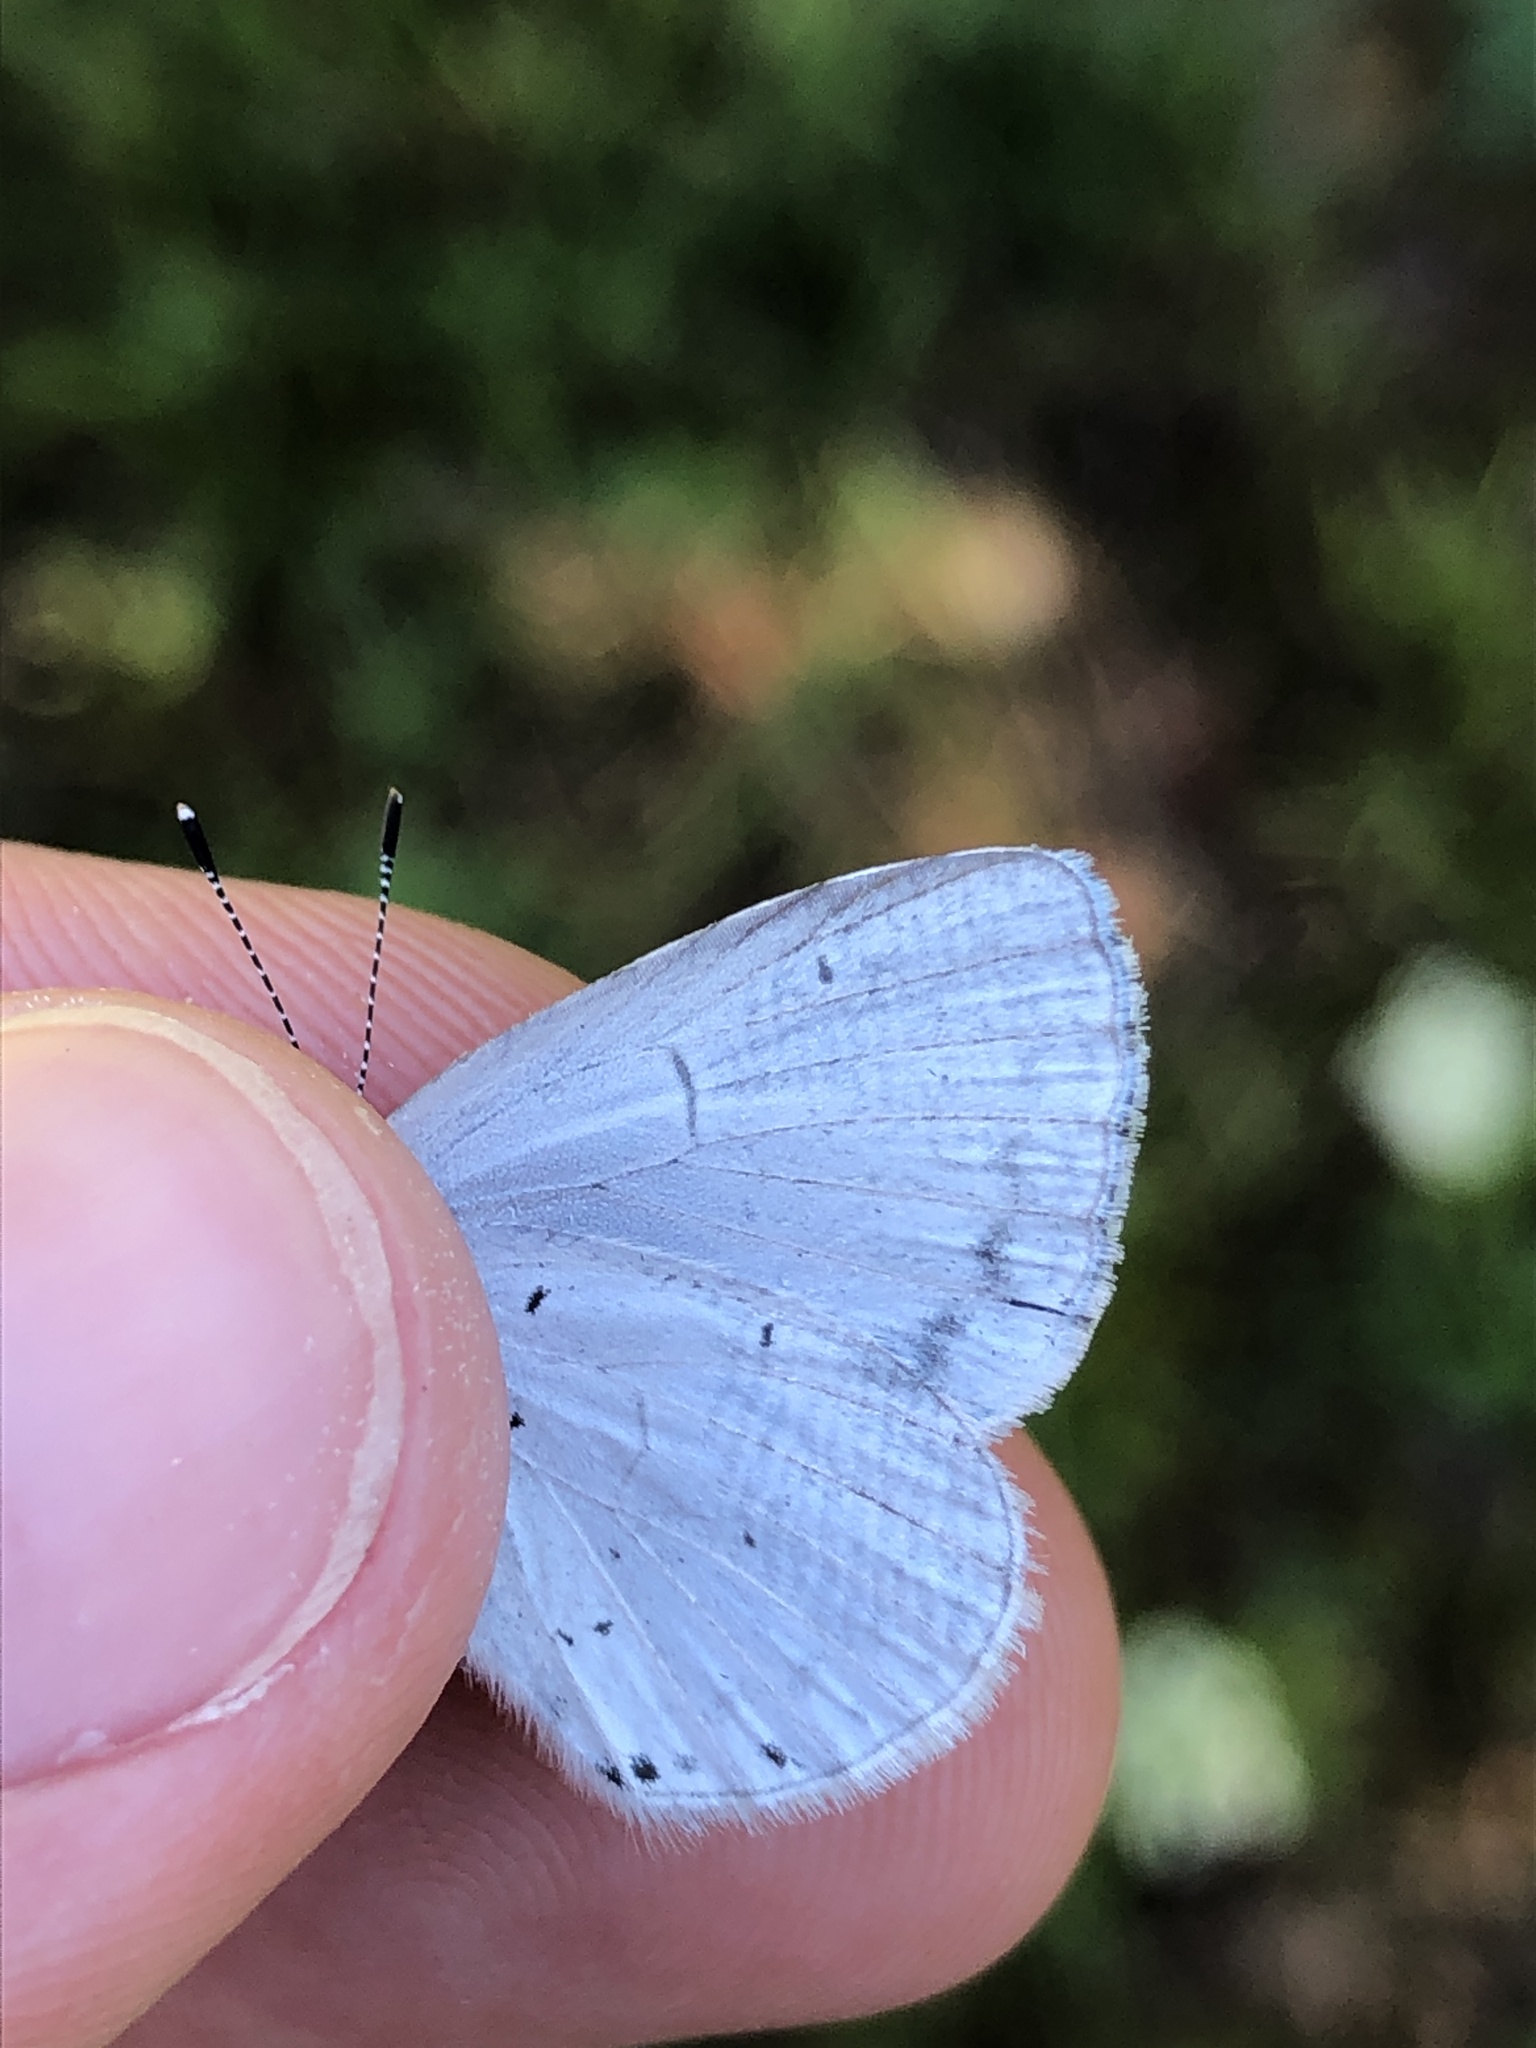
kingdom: Animalia
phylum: Arthropoda
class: Insecta
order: Lepidoptera
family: Lycaenidae
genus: Celastrina
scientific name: Celastrina argiolus
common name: Holly blue
